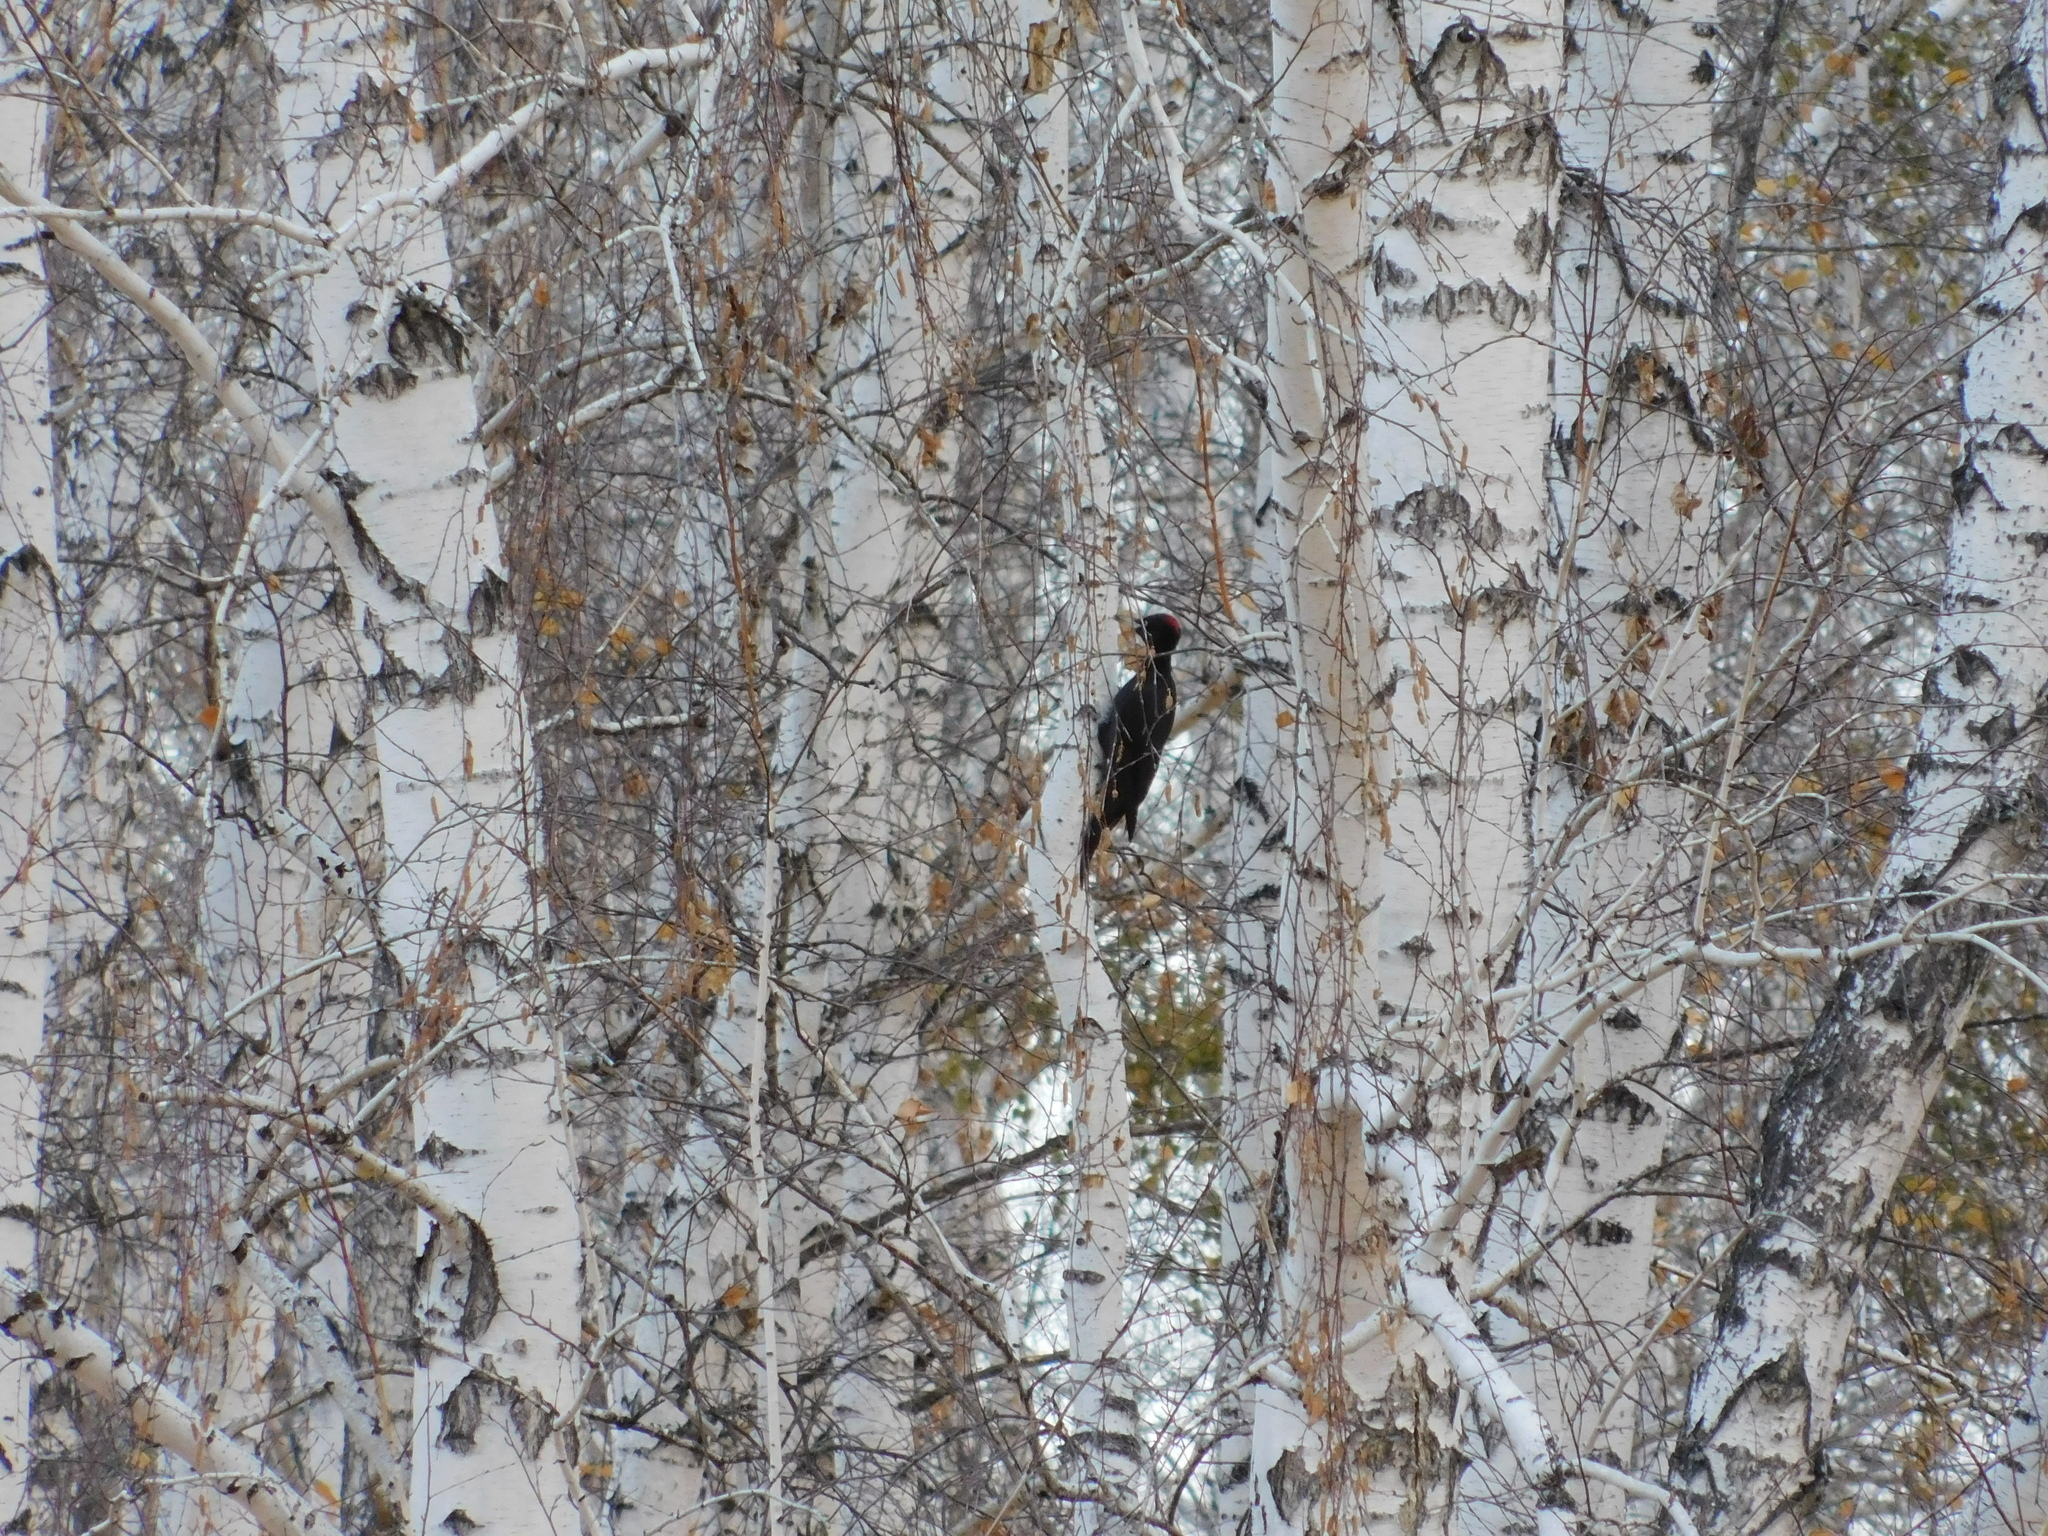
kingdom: Animalia
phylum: Chordata
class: Aves
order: Piciformes
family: Picidae
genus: Dryocopus
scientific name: Dryocopus martius
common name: Black woodpecker
